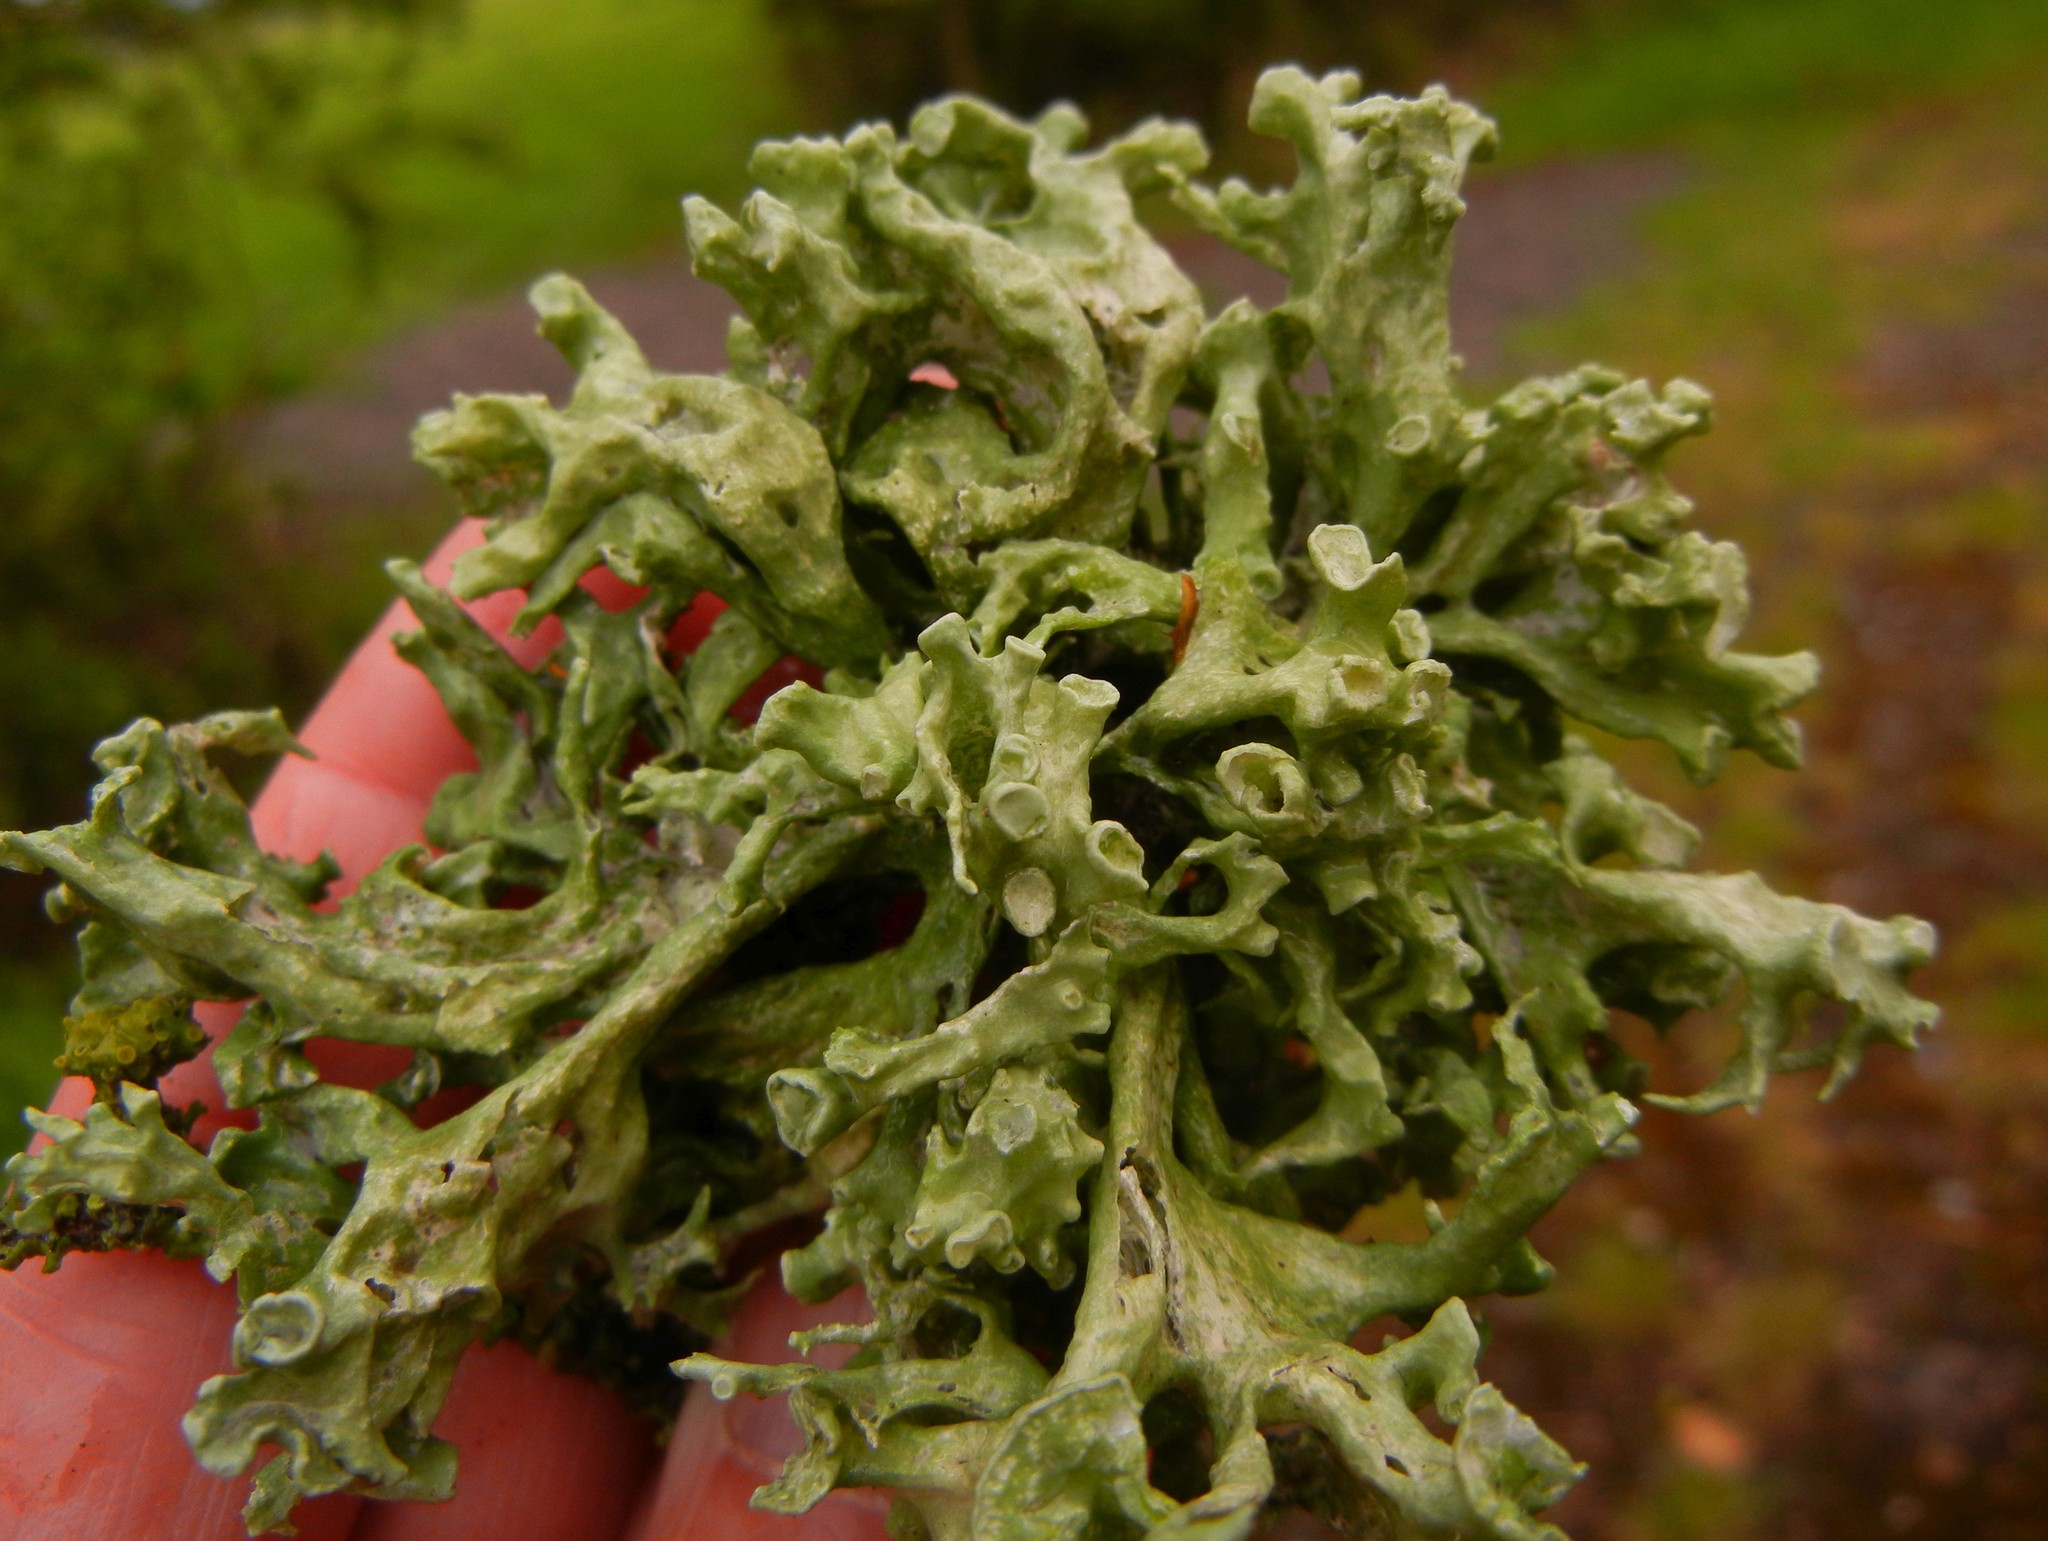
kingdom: Fungi
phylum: Ascomycota
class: Lecanoromycetes
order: Lecanorales
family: Ramalinaceae
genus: Ramalina
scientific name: Ramalina fastigiata
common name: Dotted ribbon lichen
